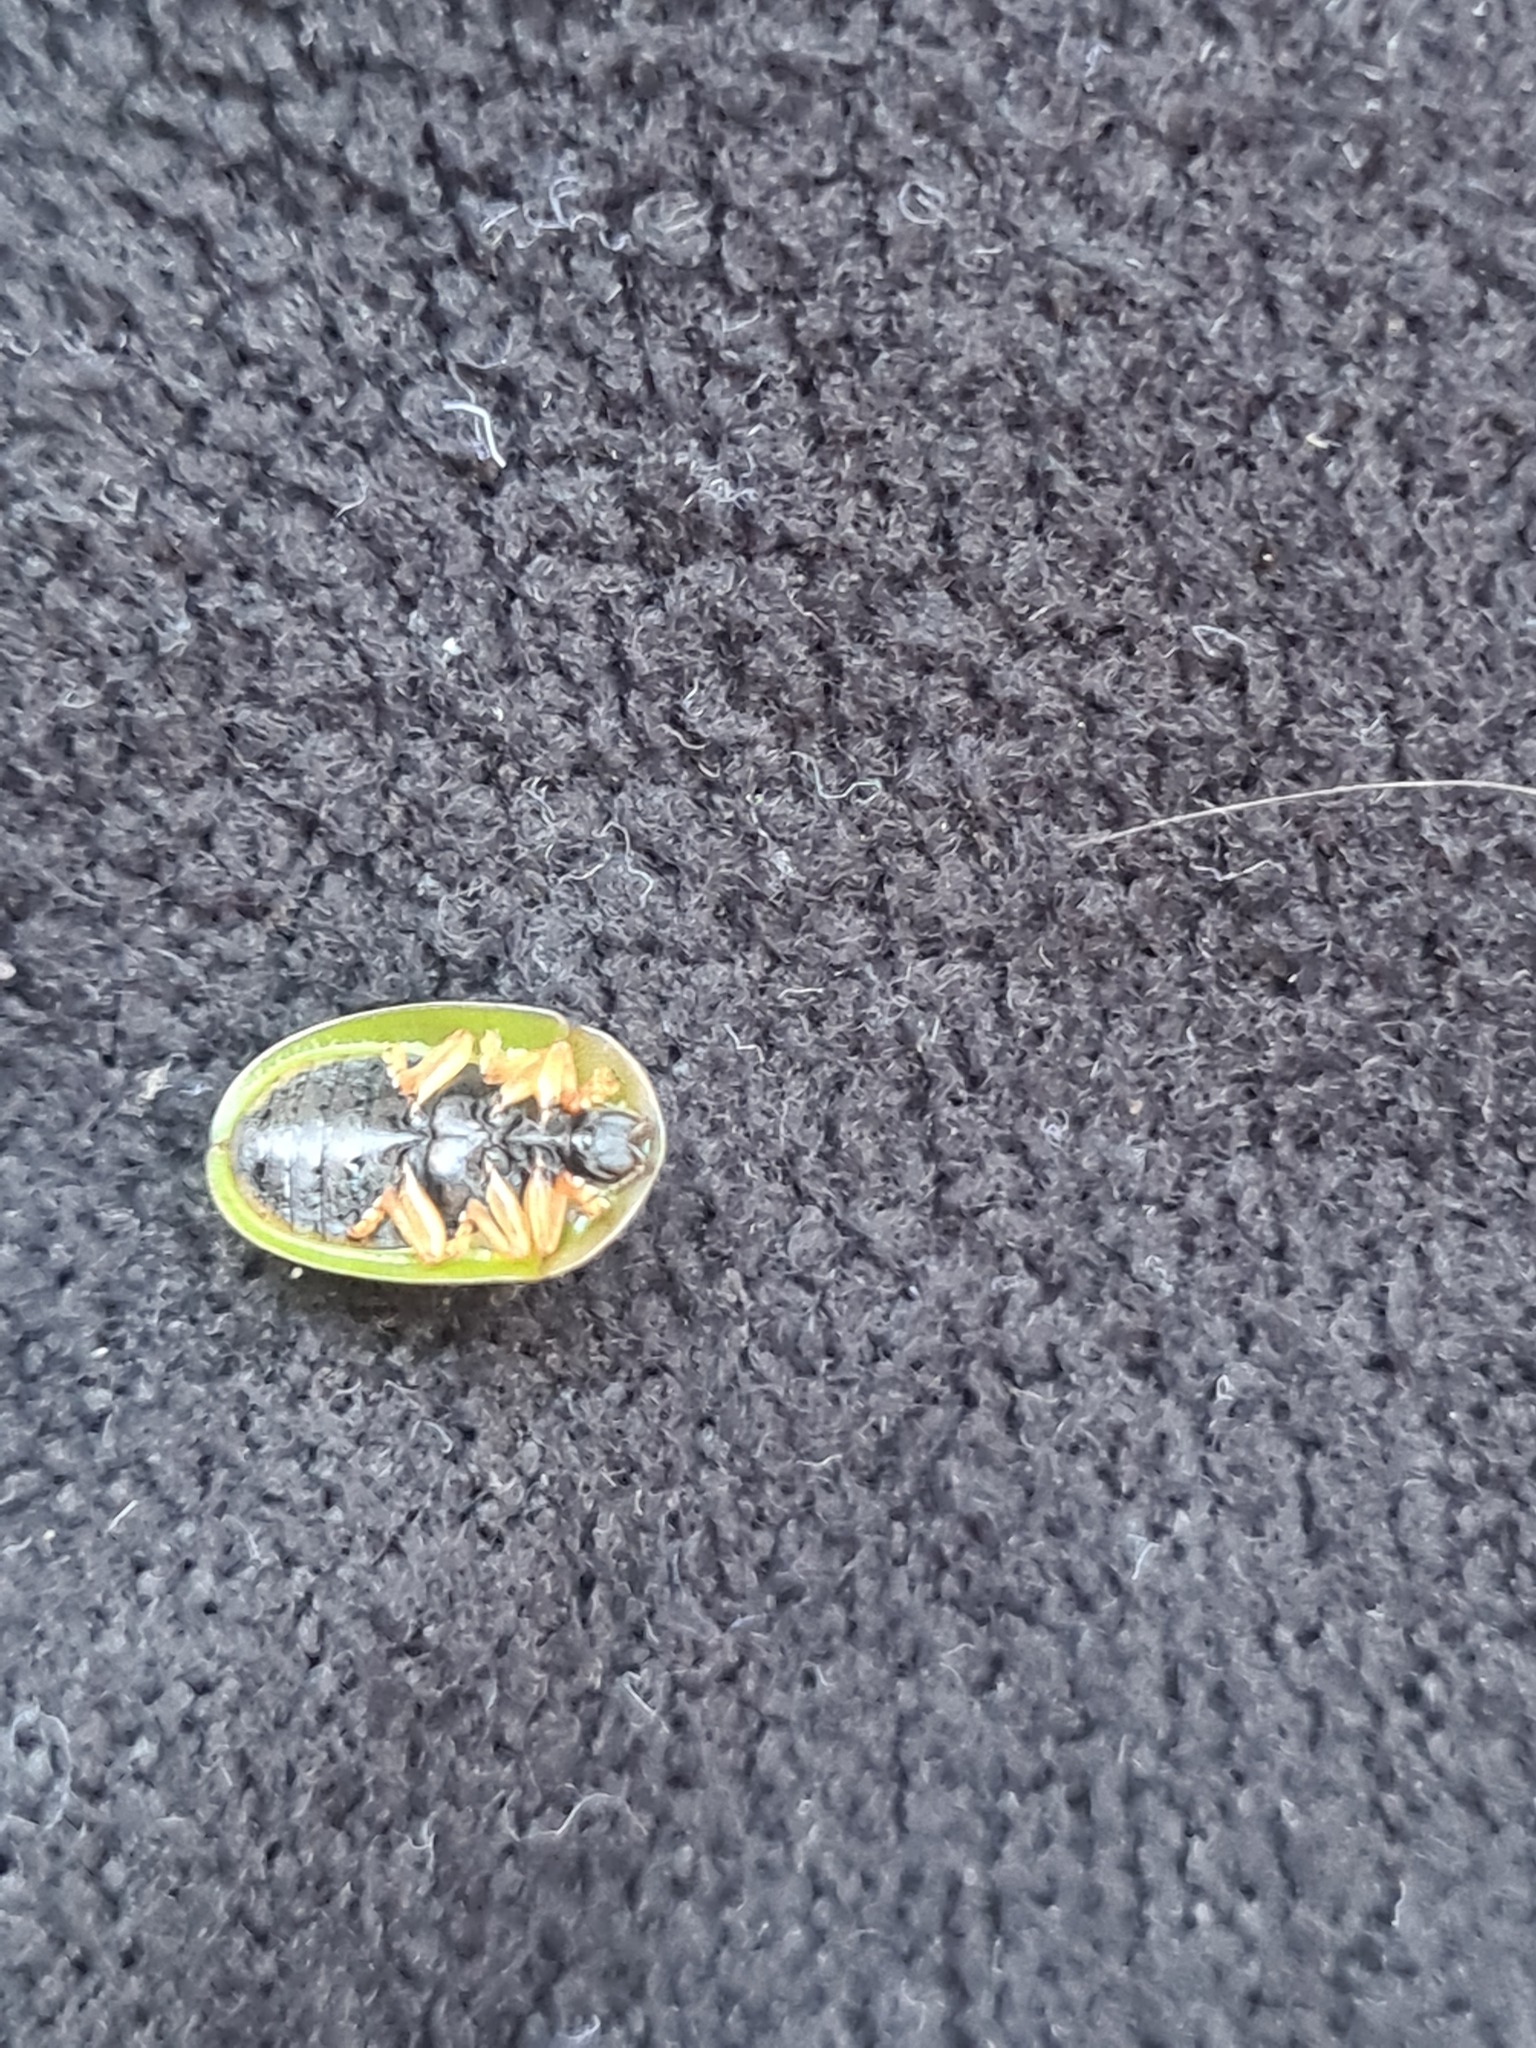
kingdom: Animalia
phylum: Arthropoda
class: Insecta
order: Coleoptera
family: Chrysomelidae
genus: Cassida
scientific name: Cassida rubiginosa
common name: Thistle tortoise beetle
